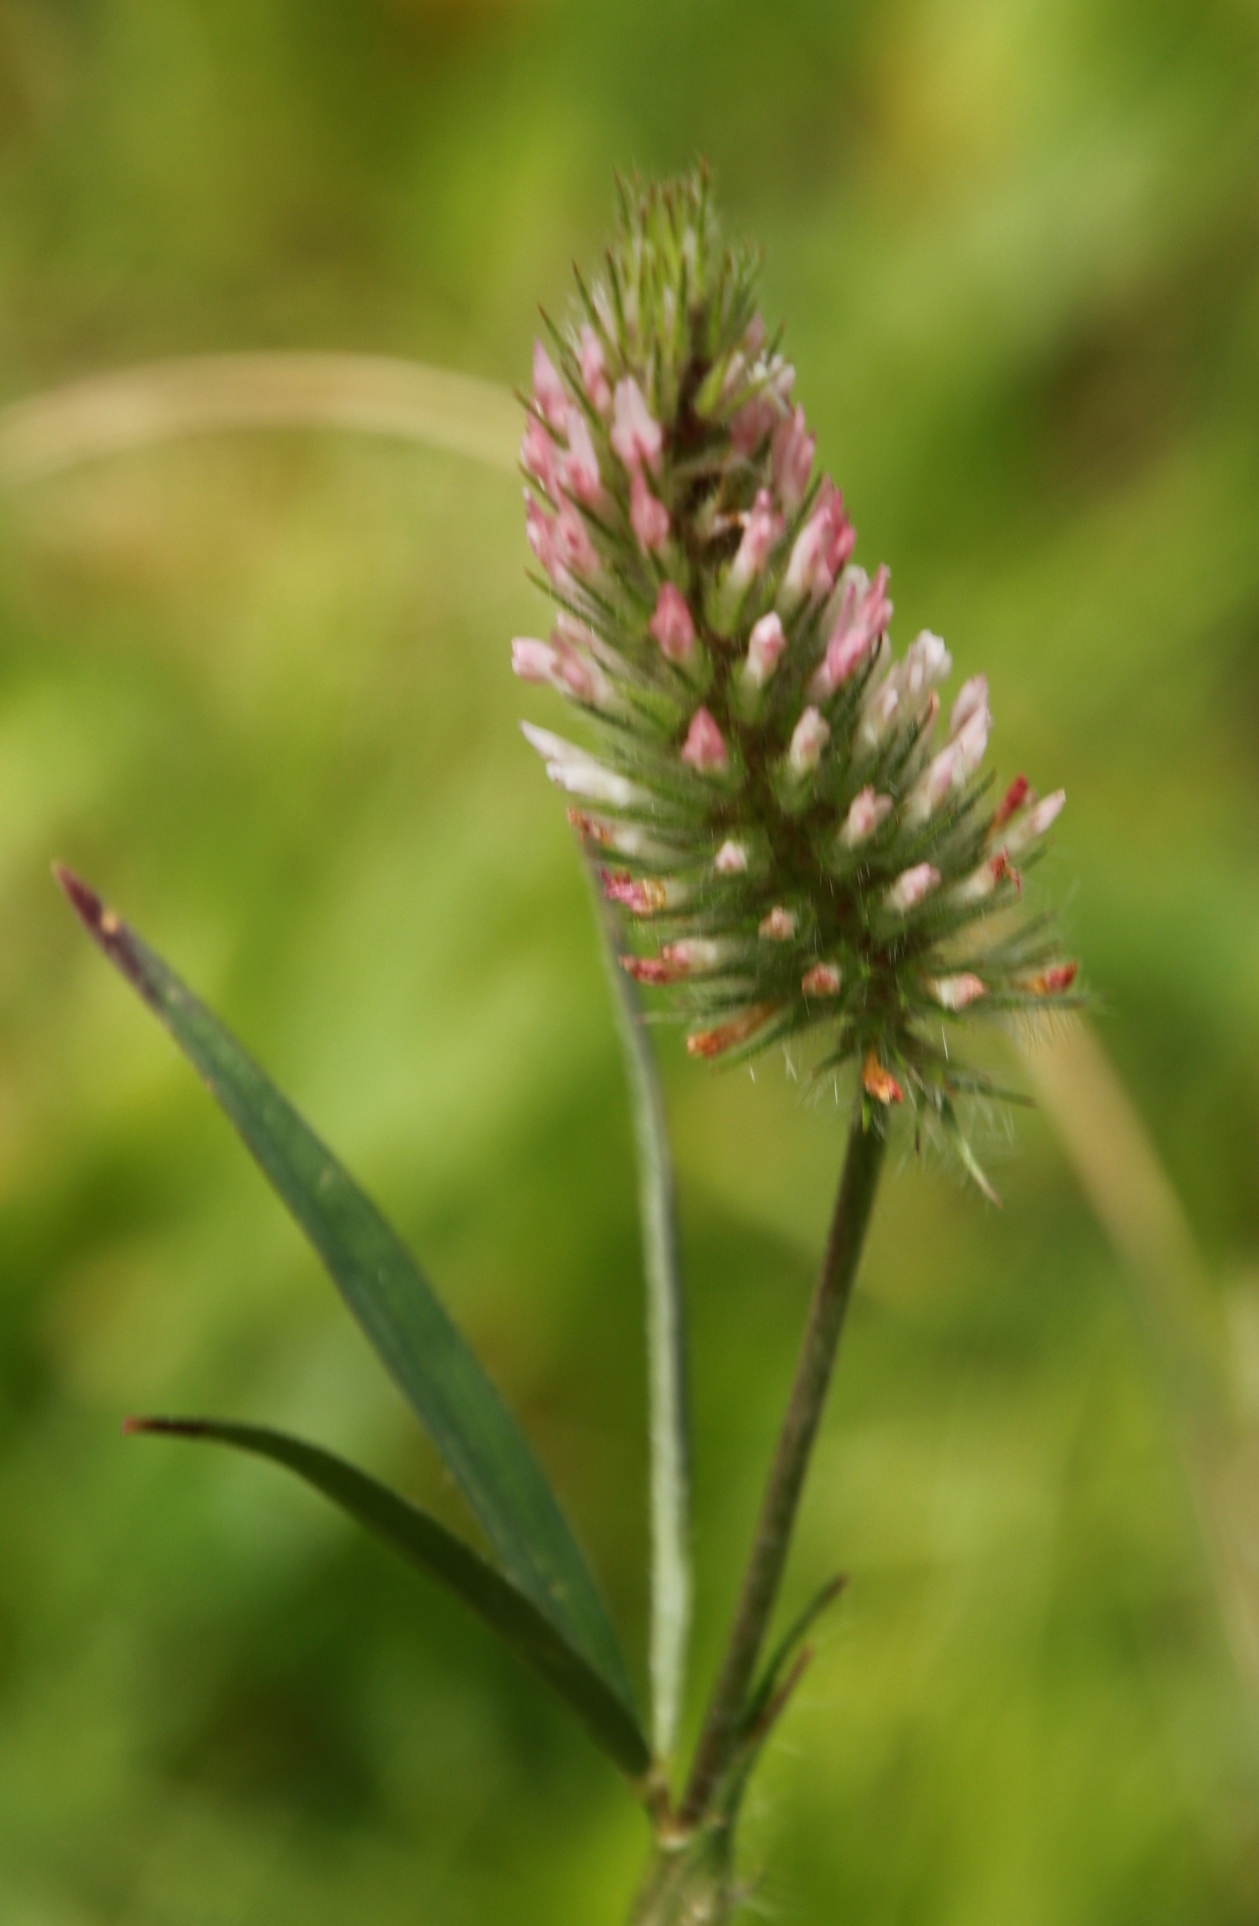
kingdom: Plantae
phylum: Tracheophyta
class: Magnoliopsida
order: Fabales
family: Fabaceae
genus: Trifolium
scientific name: Trifolium angustifolium
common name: Narrow clover
